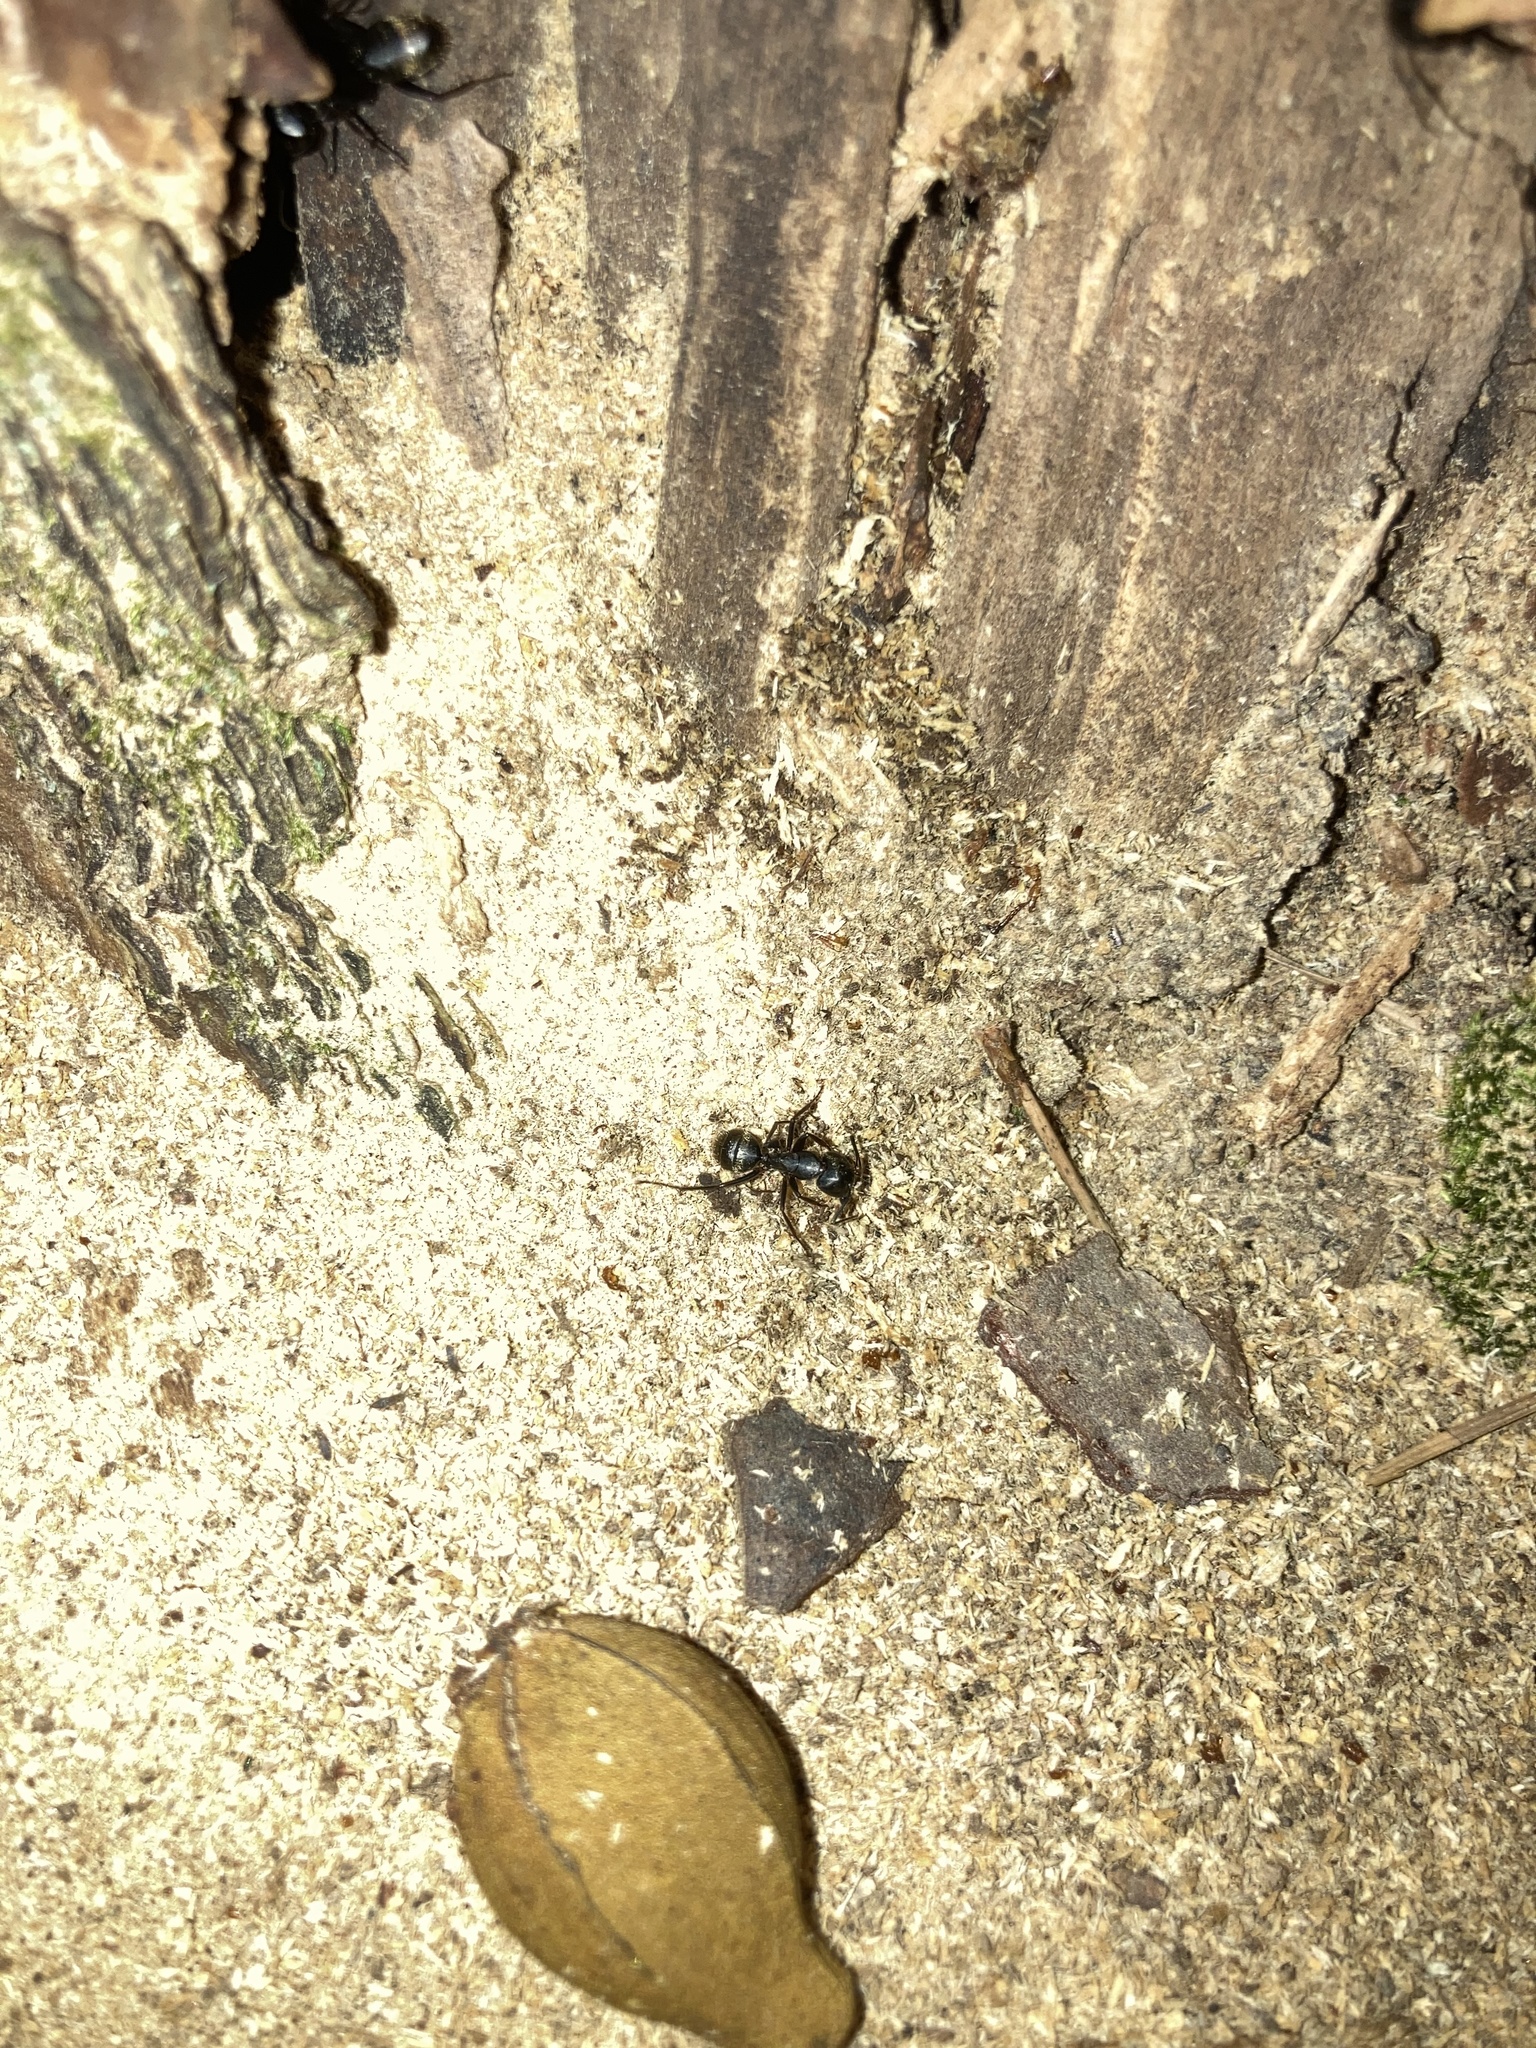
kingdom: Animalia
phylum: Arthropoda
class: Insecta
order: Hymenoptera
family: Formicidae
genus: Camponotus
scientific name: Camponotus pennsylvanicus
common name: Black carpenter ant
